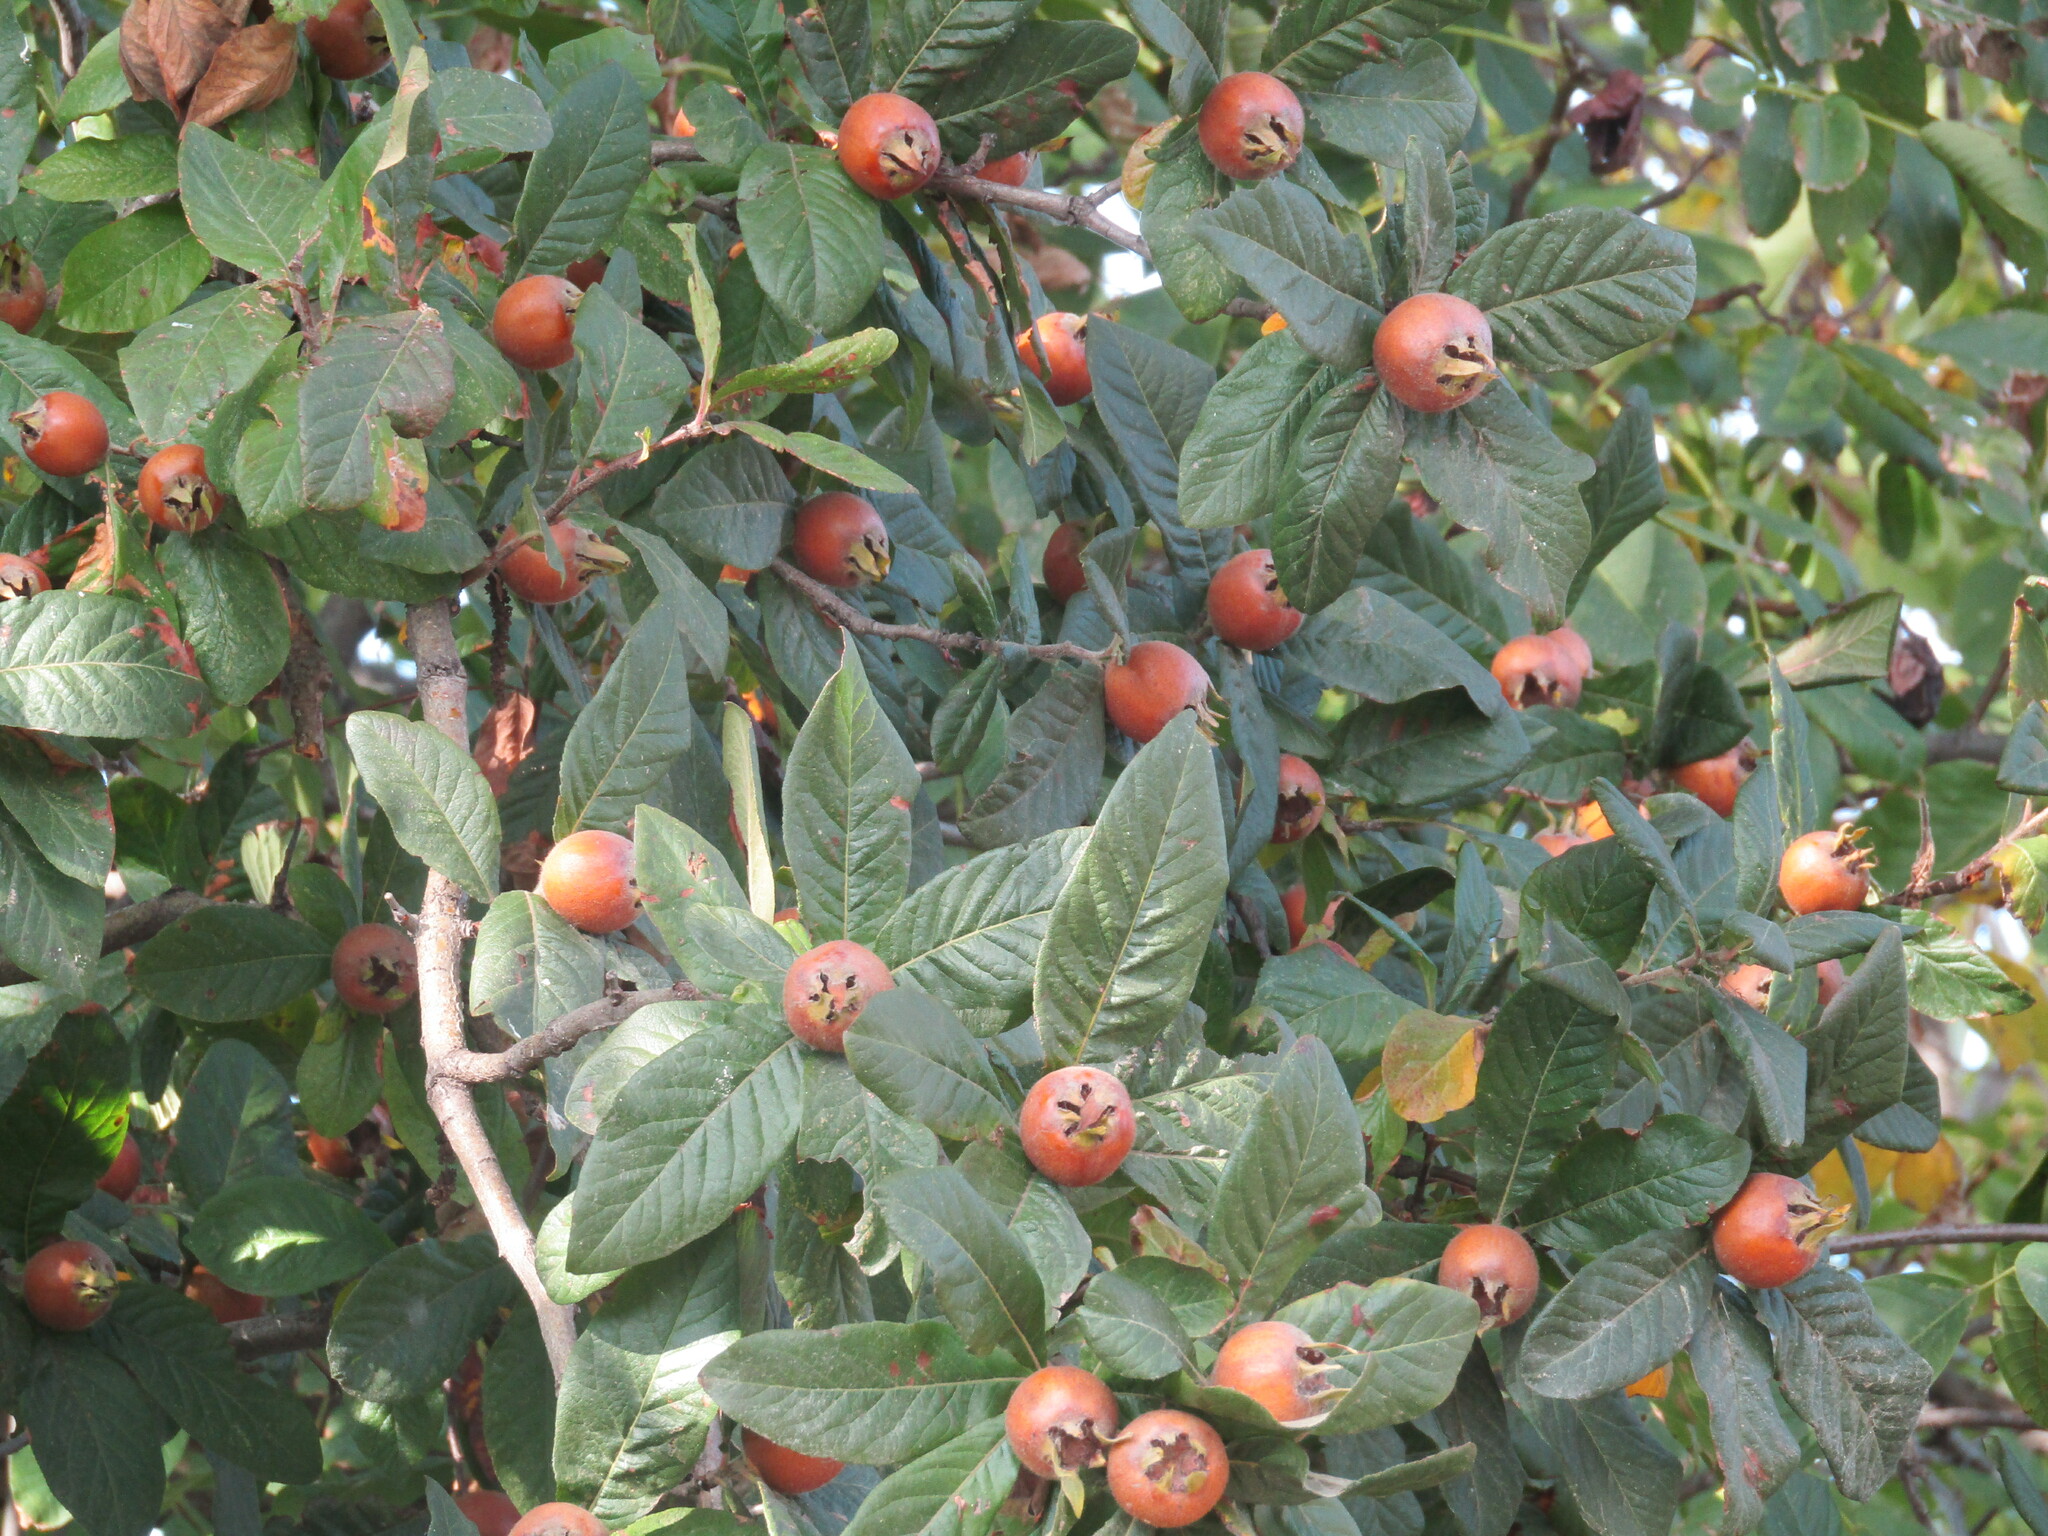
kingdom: Plantae
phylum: Tracheophyta
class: Magnoliopsida
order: Rosales
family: Rosaceae
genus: Mespilus
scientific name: Mespilus germanica
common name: Medlar
